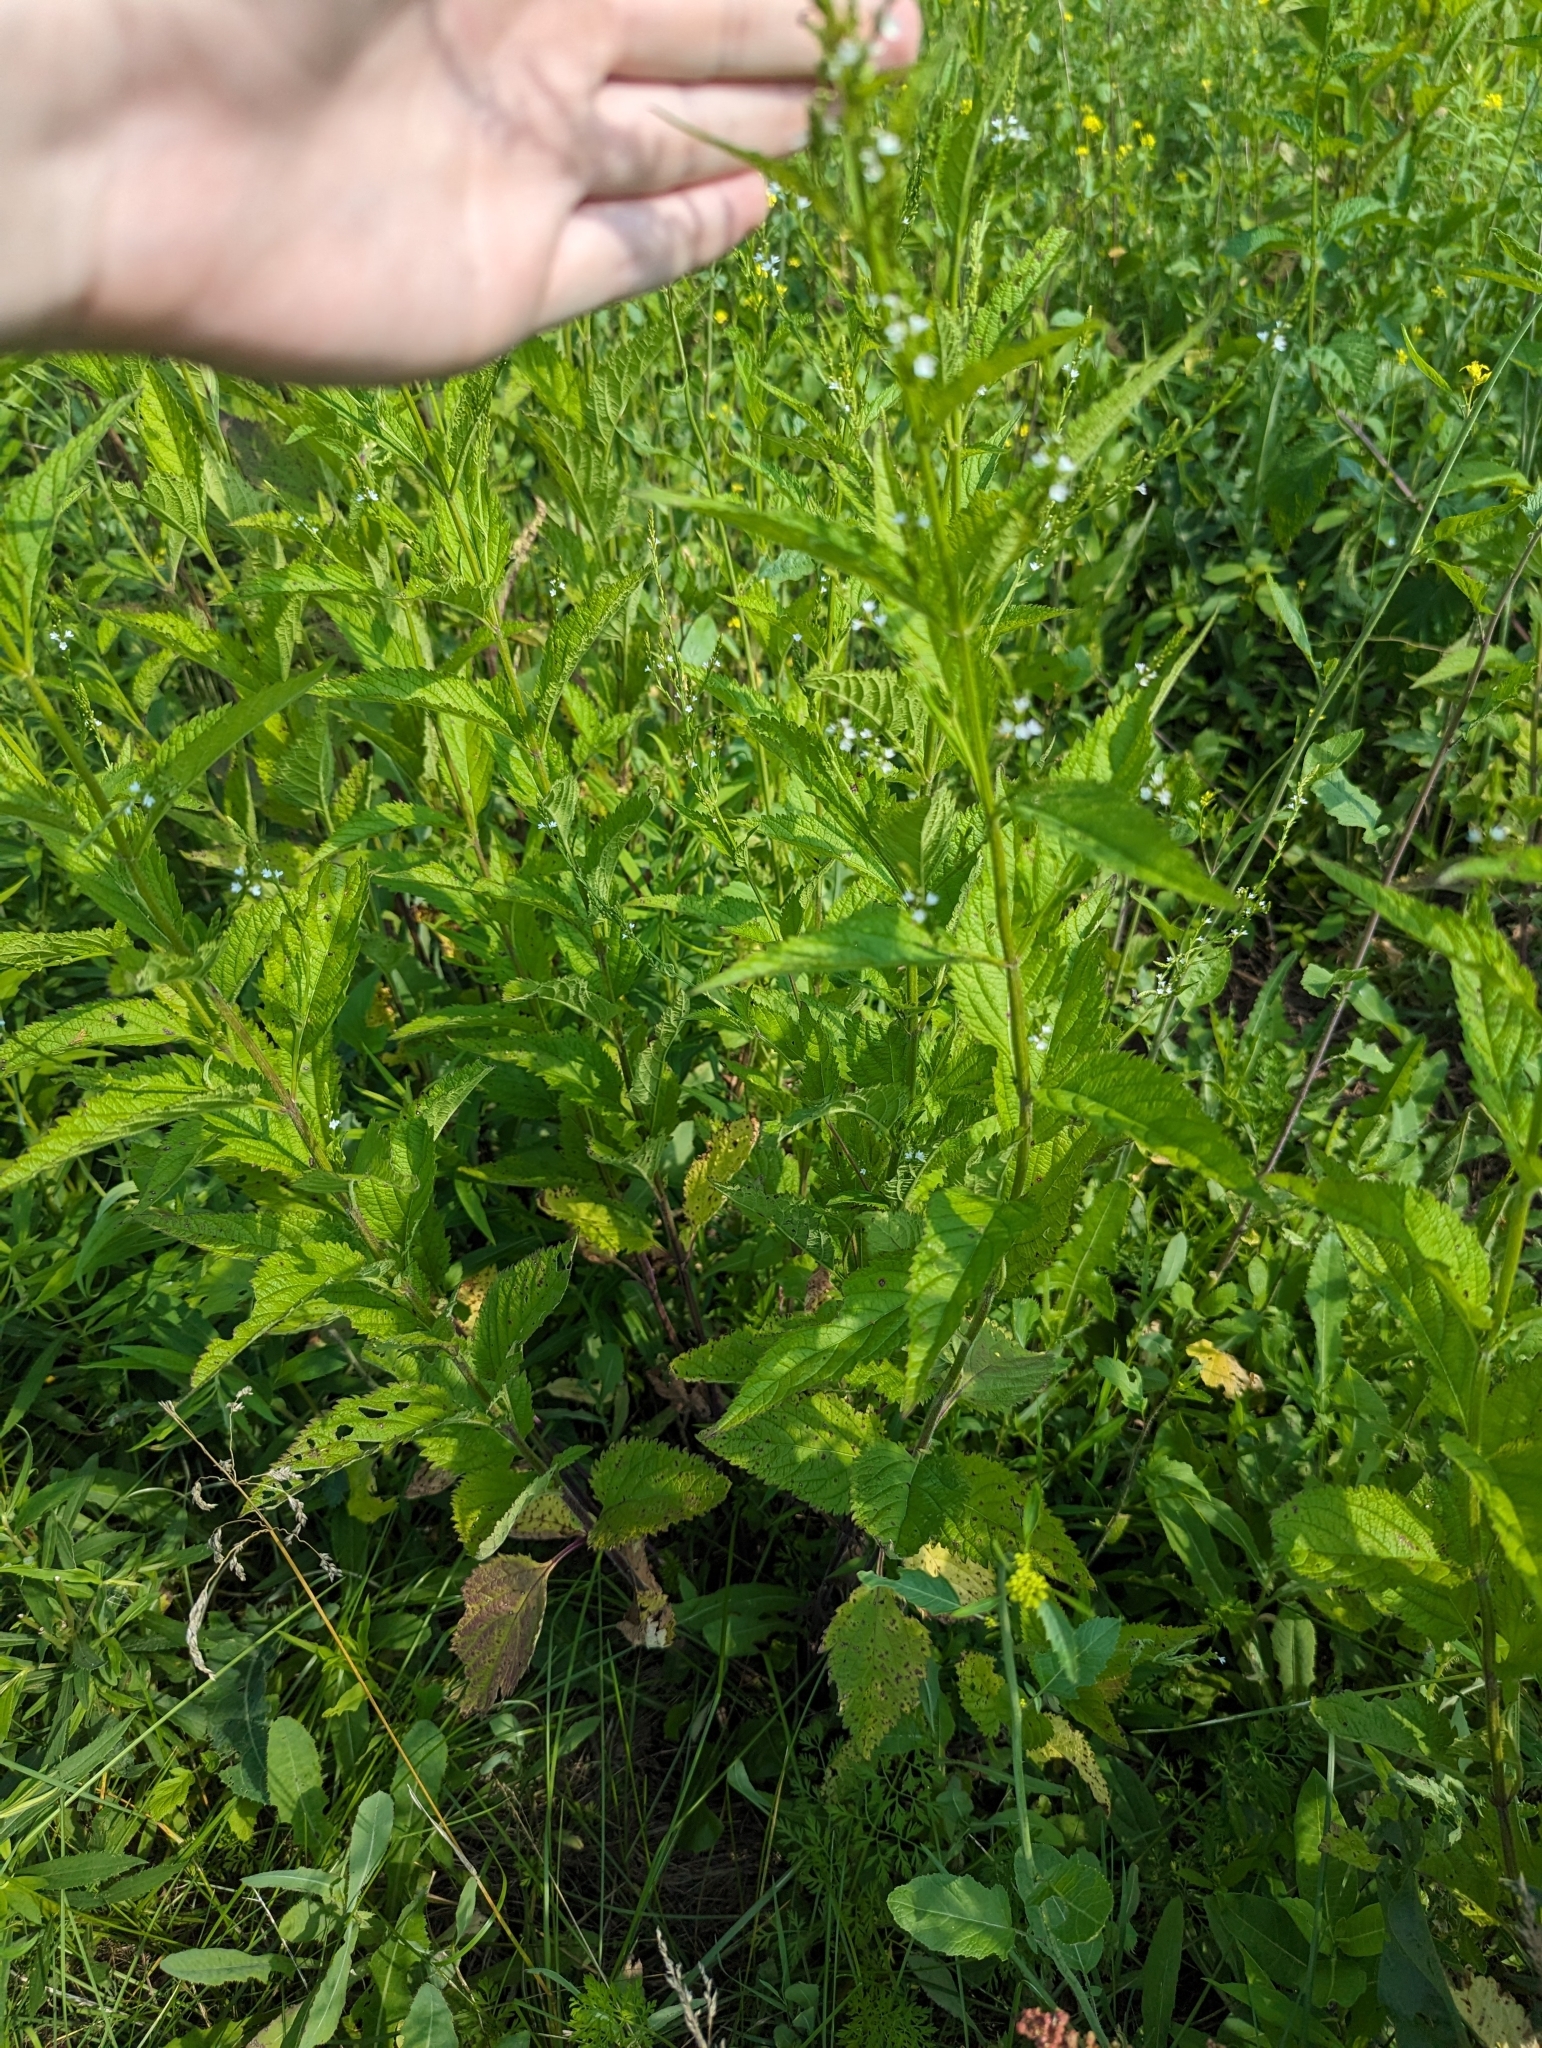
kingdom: Plantae
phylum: Tracheophyta
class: Magnoliopsida
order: Lamiales
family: Verbenaceae
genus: Verbena
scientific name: Verbena urticifolia
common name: Nettle-leaved vervain
